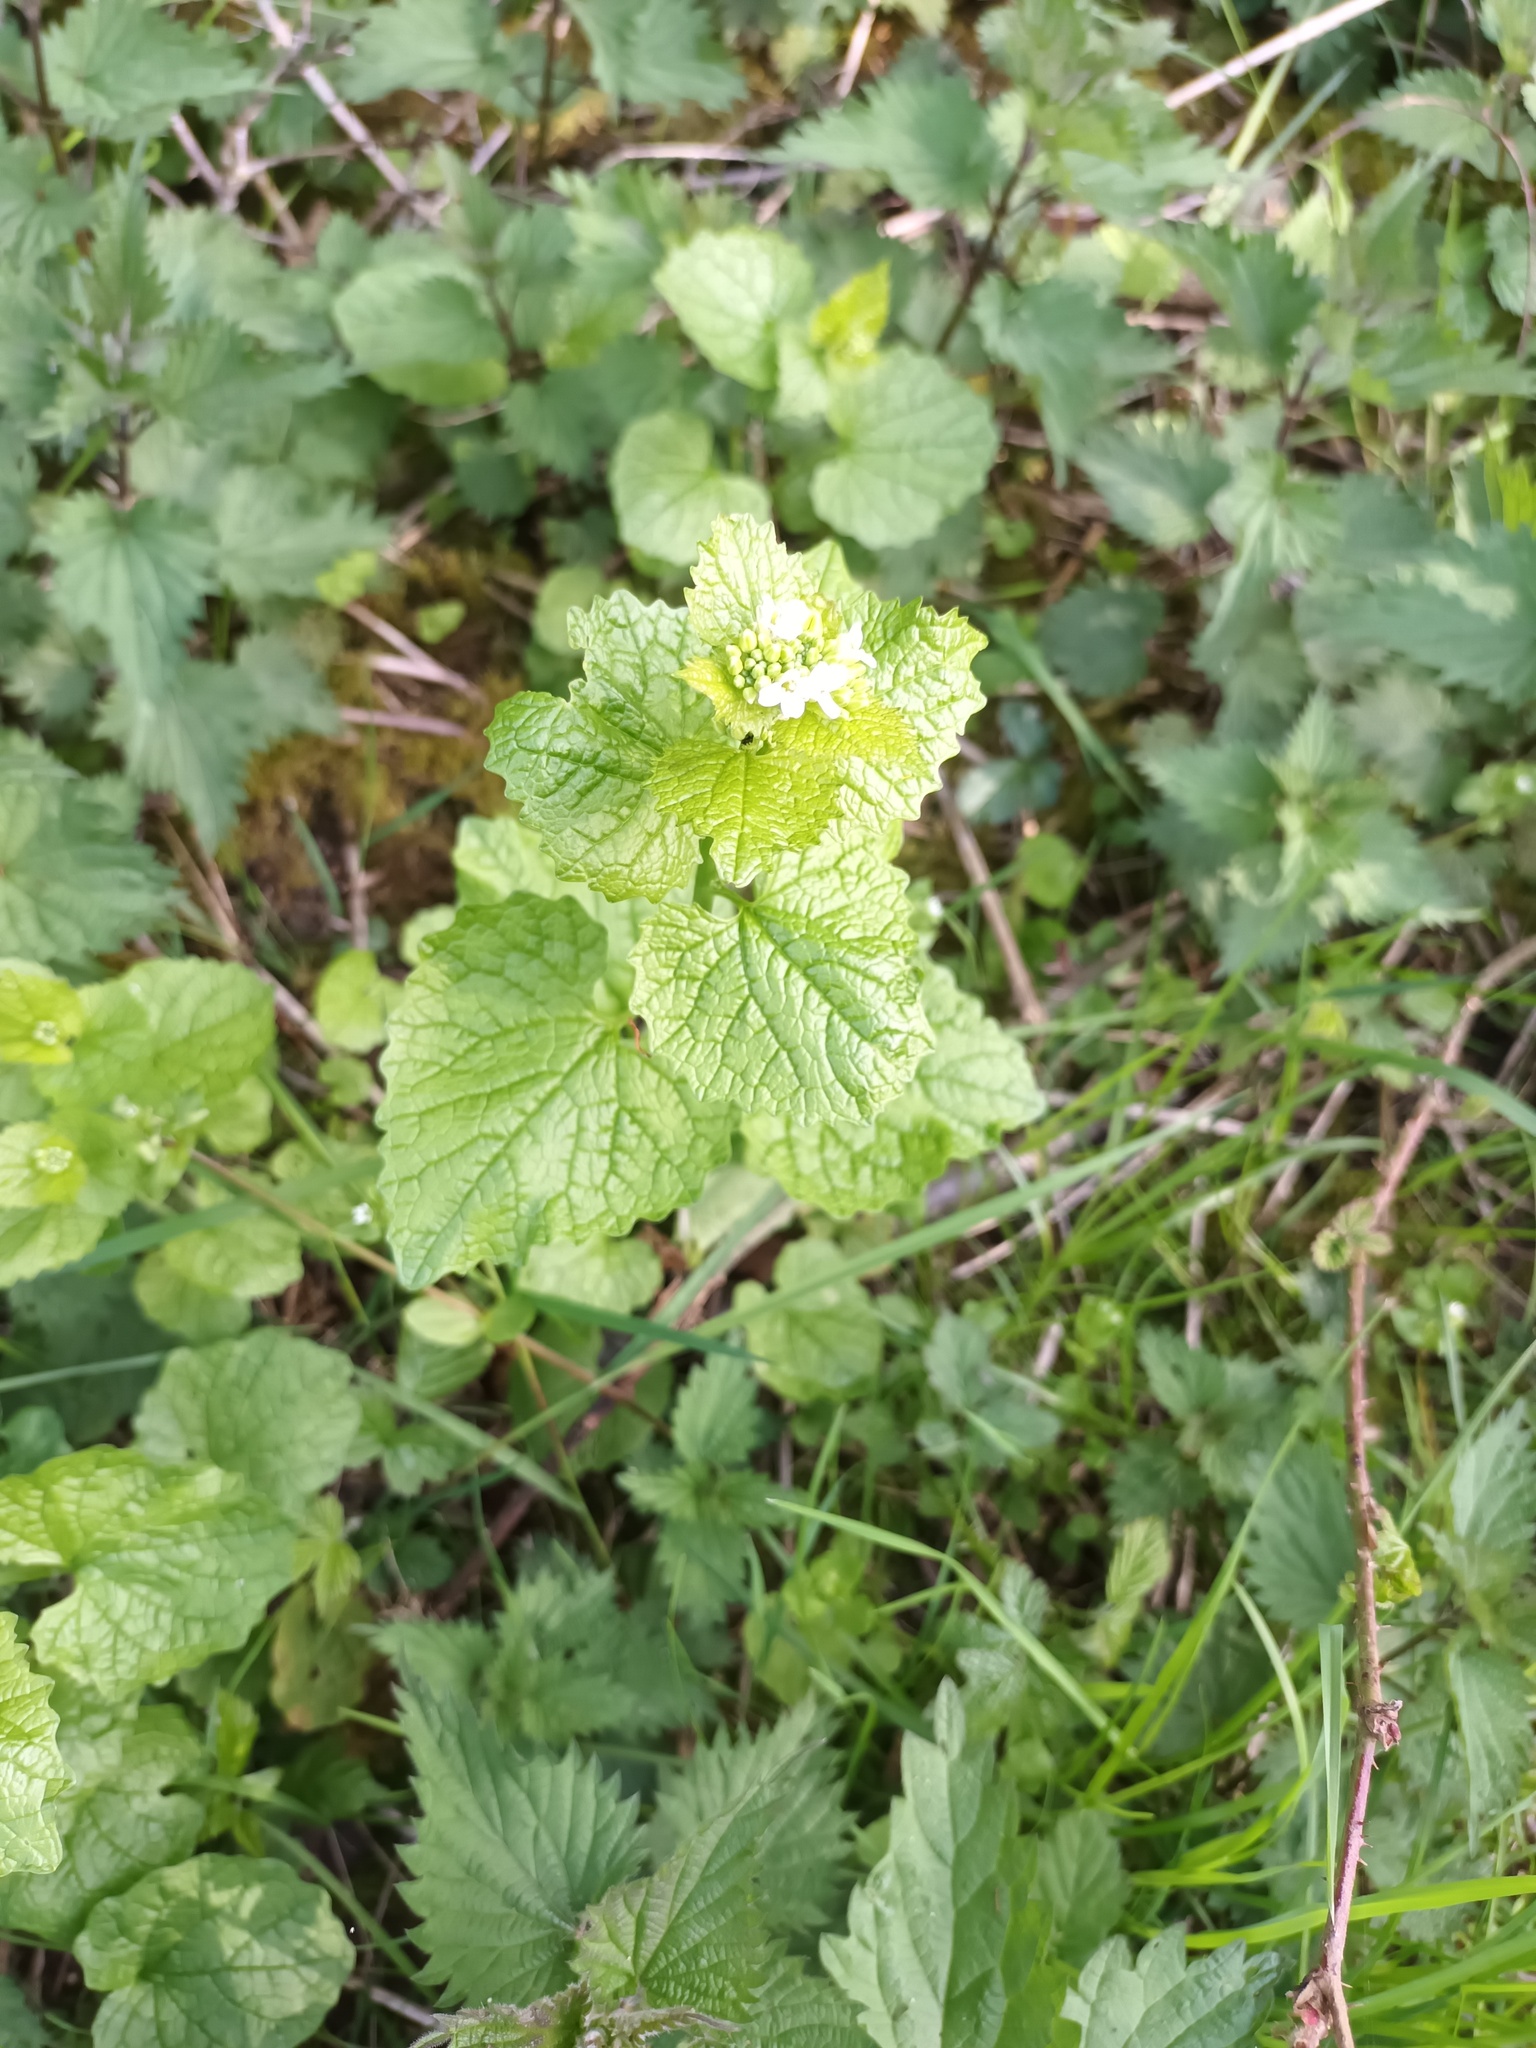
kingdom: Plantae
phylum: Tracheophyta
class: Magnoliopsida
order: Brassicales
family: Brassicaceae
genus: Alliaria
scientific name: Alliaria petiolata
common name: Garlic mustard
